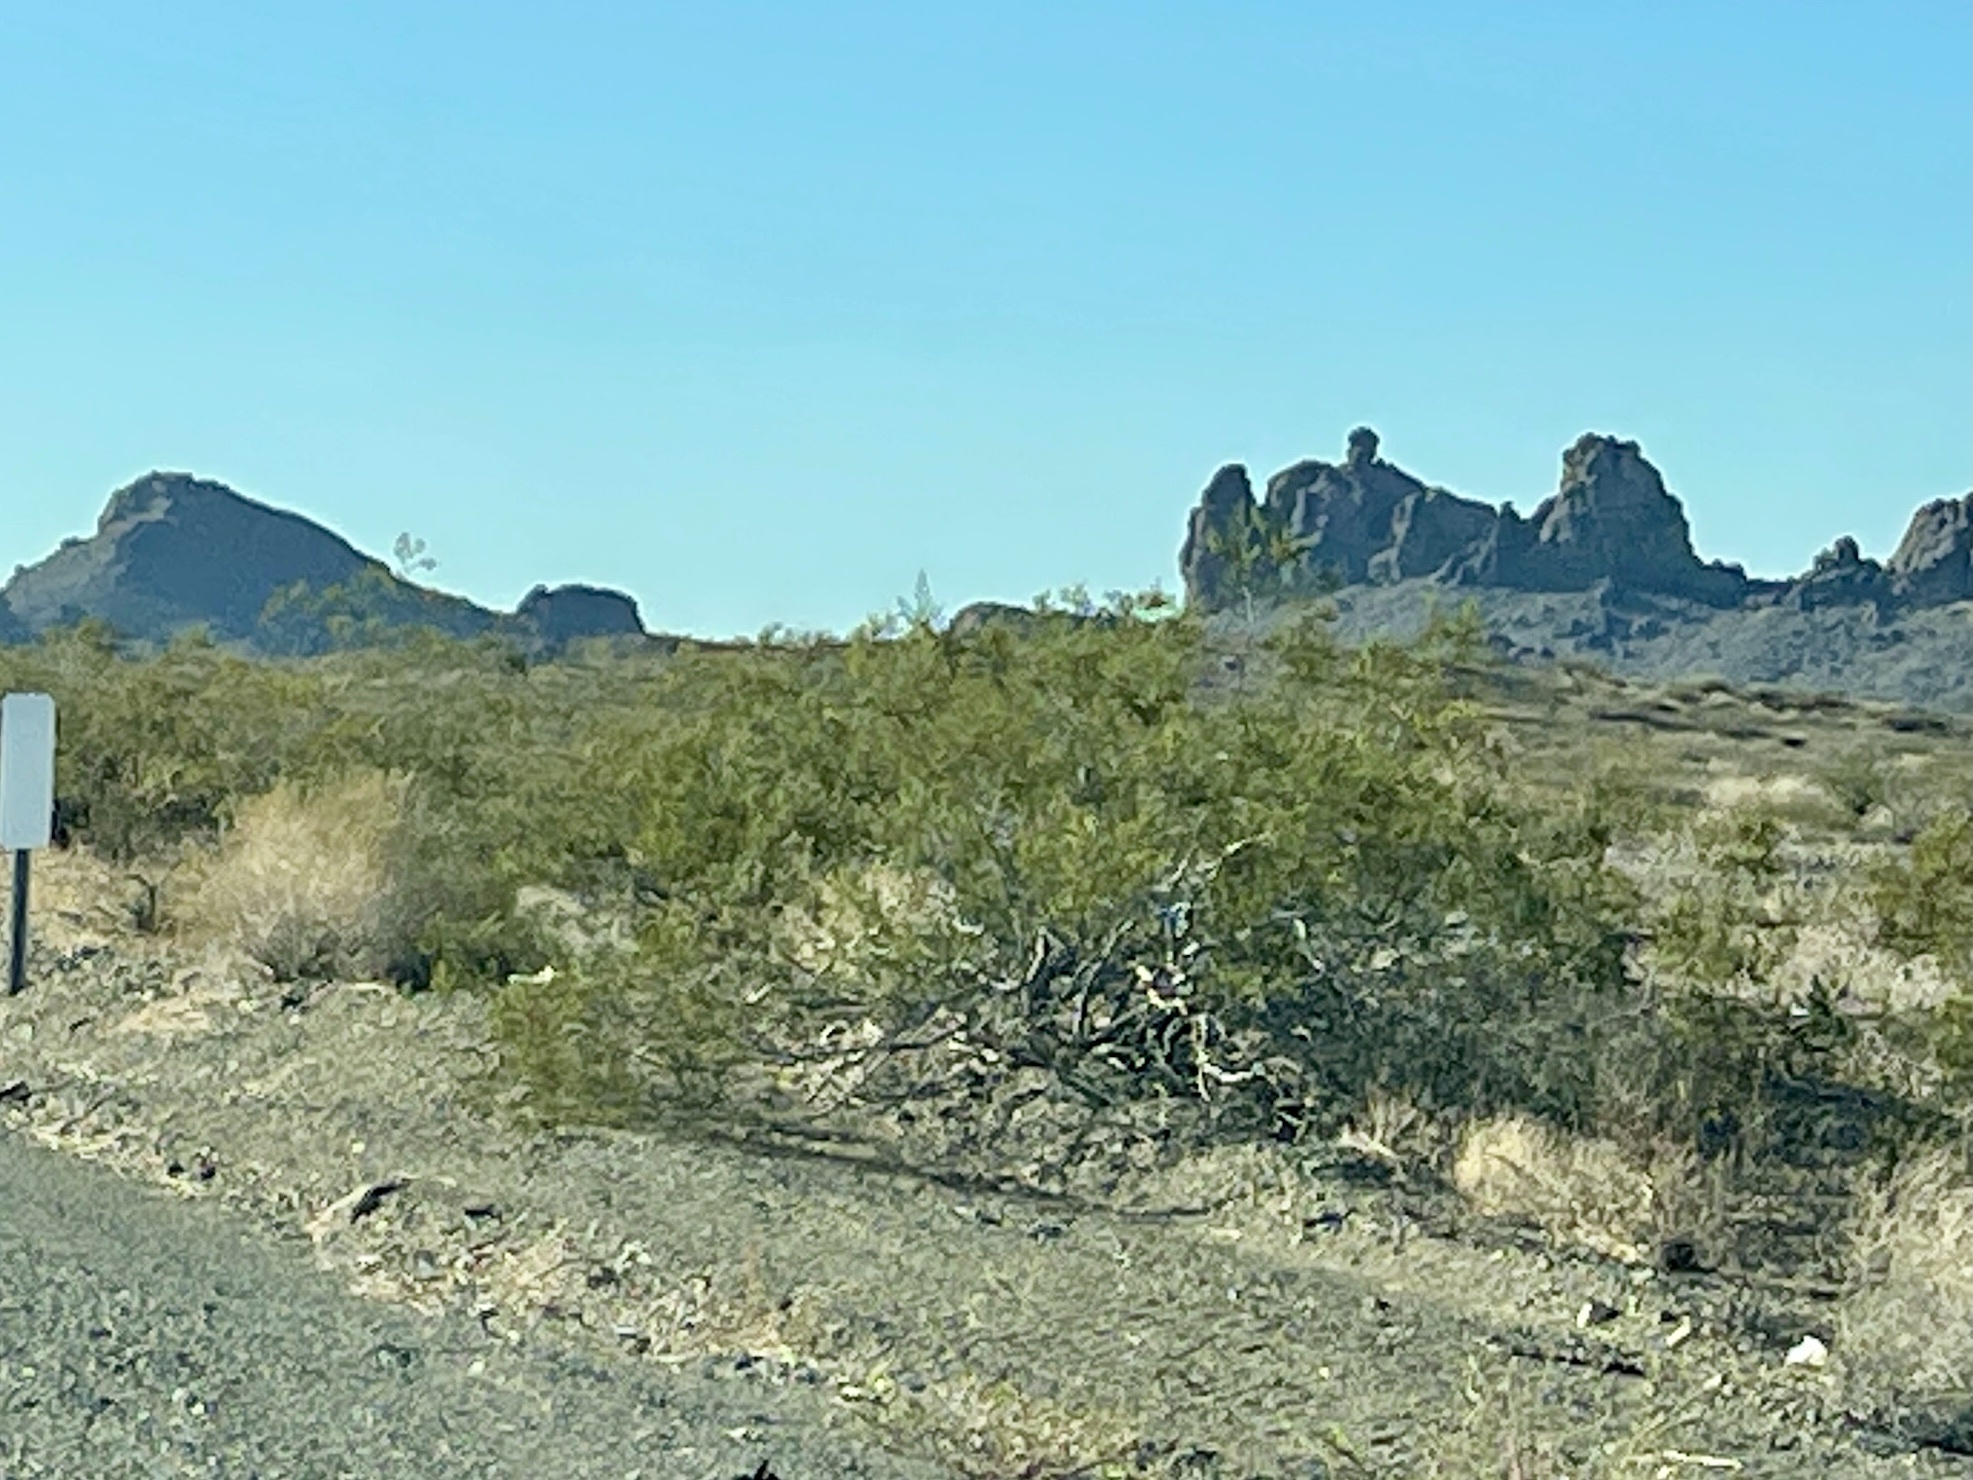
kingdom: Plantae
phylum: Tracheophyta
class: Magnoliopsida
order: Zygophyllales
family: Zygophyllaceae
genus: Larrea
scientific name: Larrea tridentata
